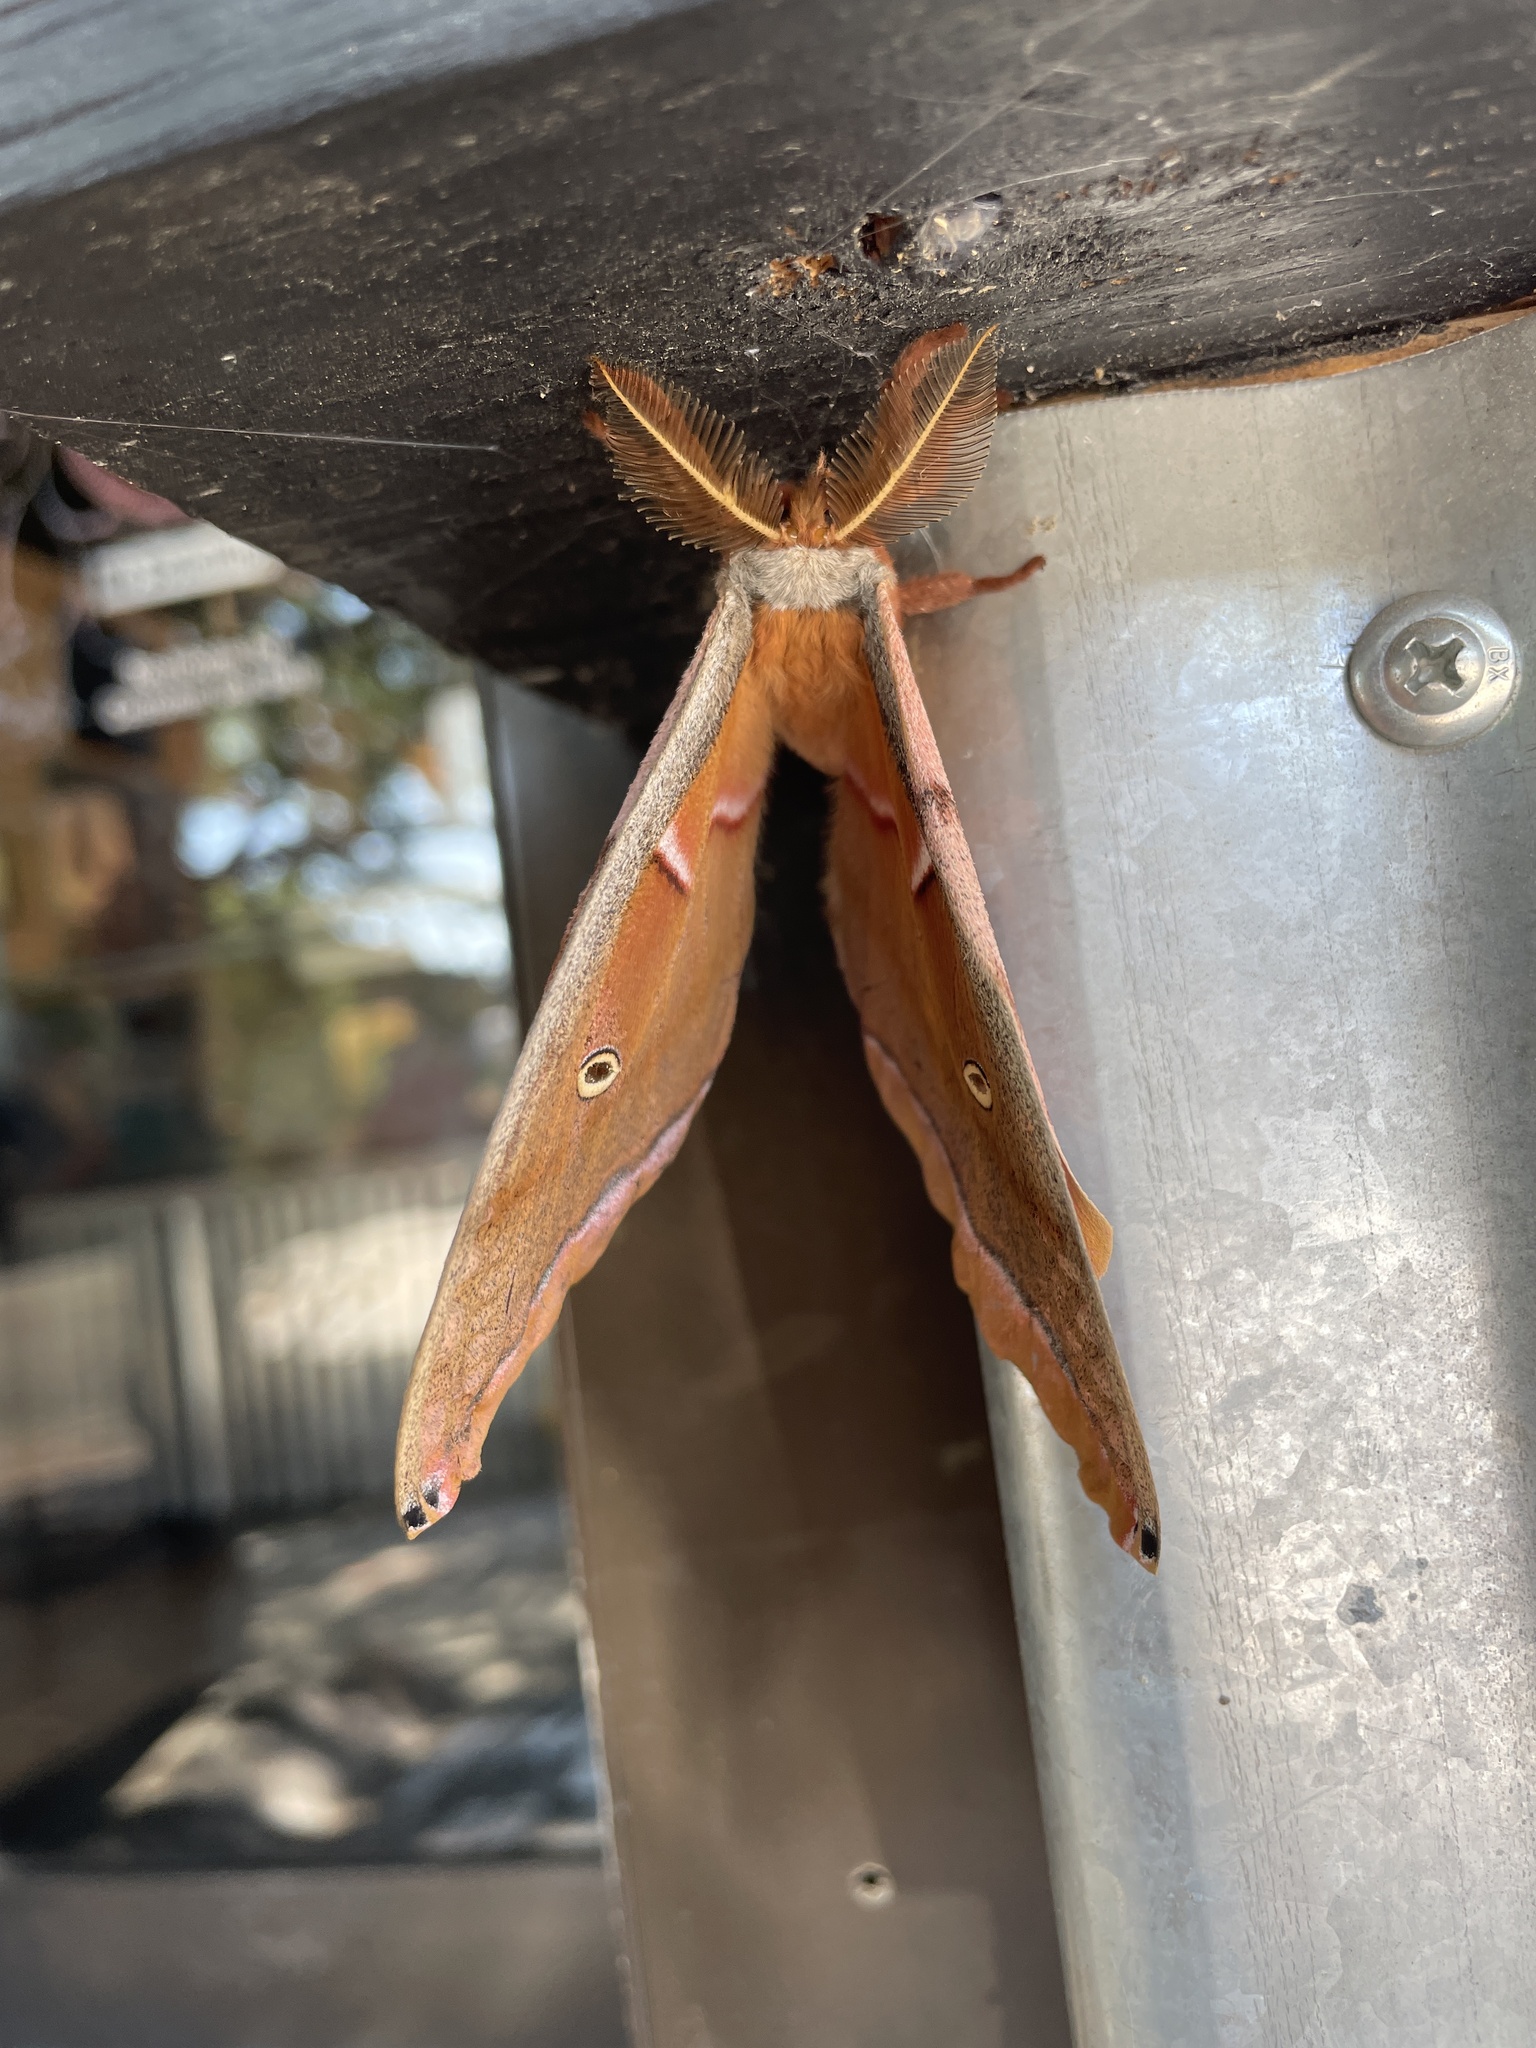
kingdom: Animalia
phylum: Arthropoda
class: Insecta
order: Lepidoptera
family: Saturniidae
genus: Antheraea
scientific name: Antheraea polyphemus
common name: Polyphemus moth
